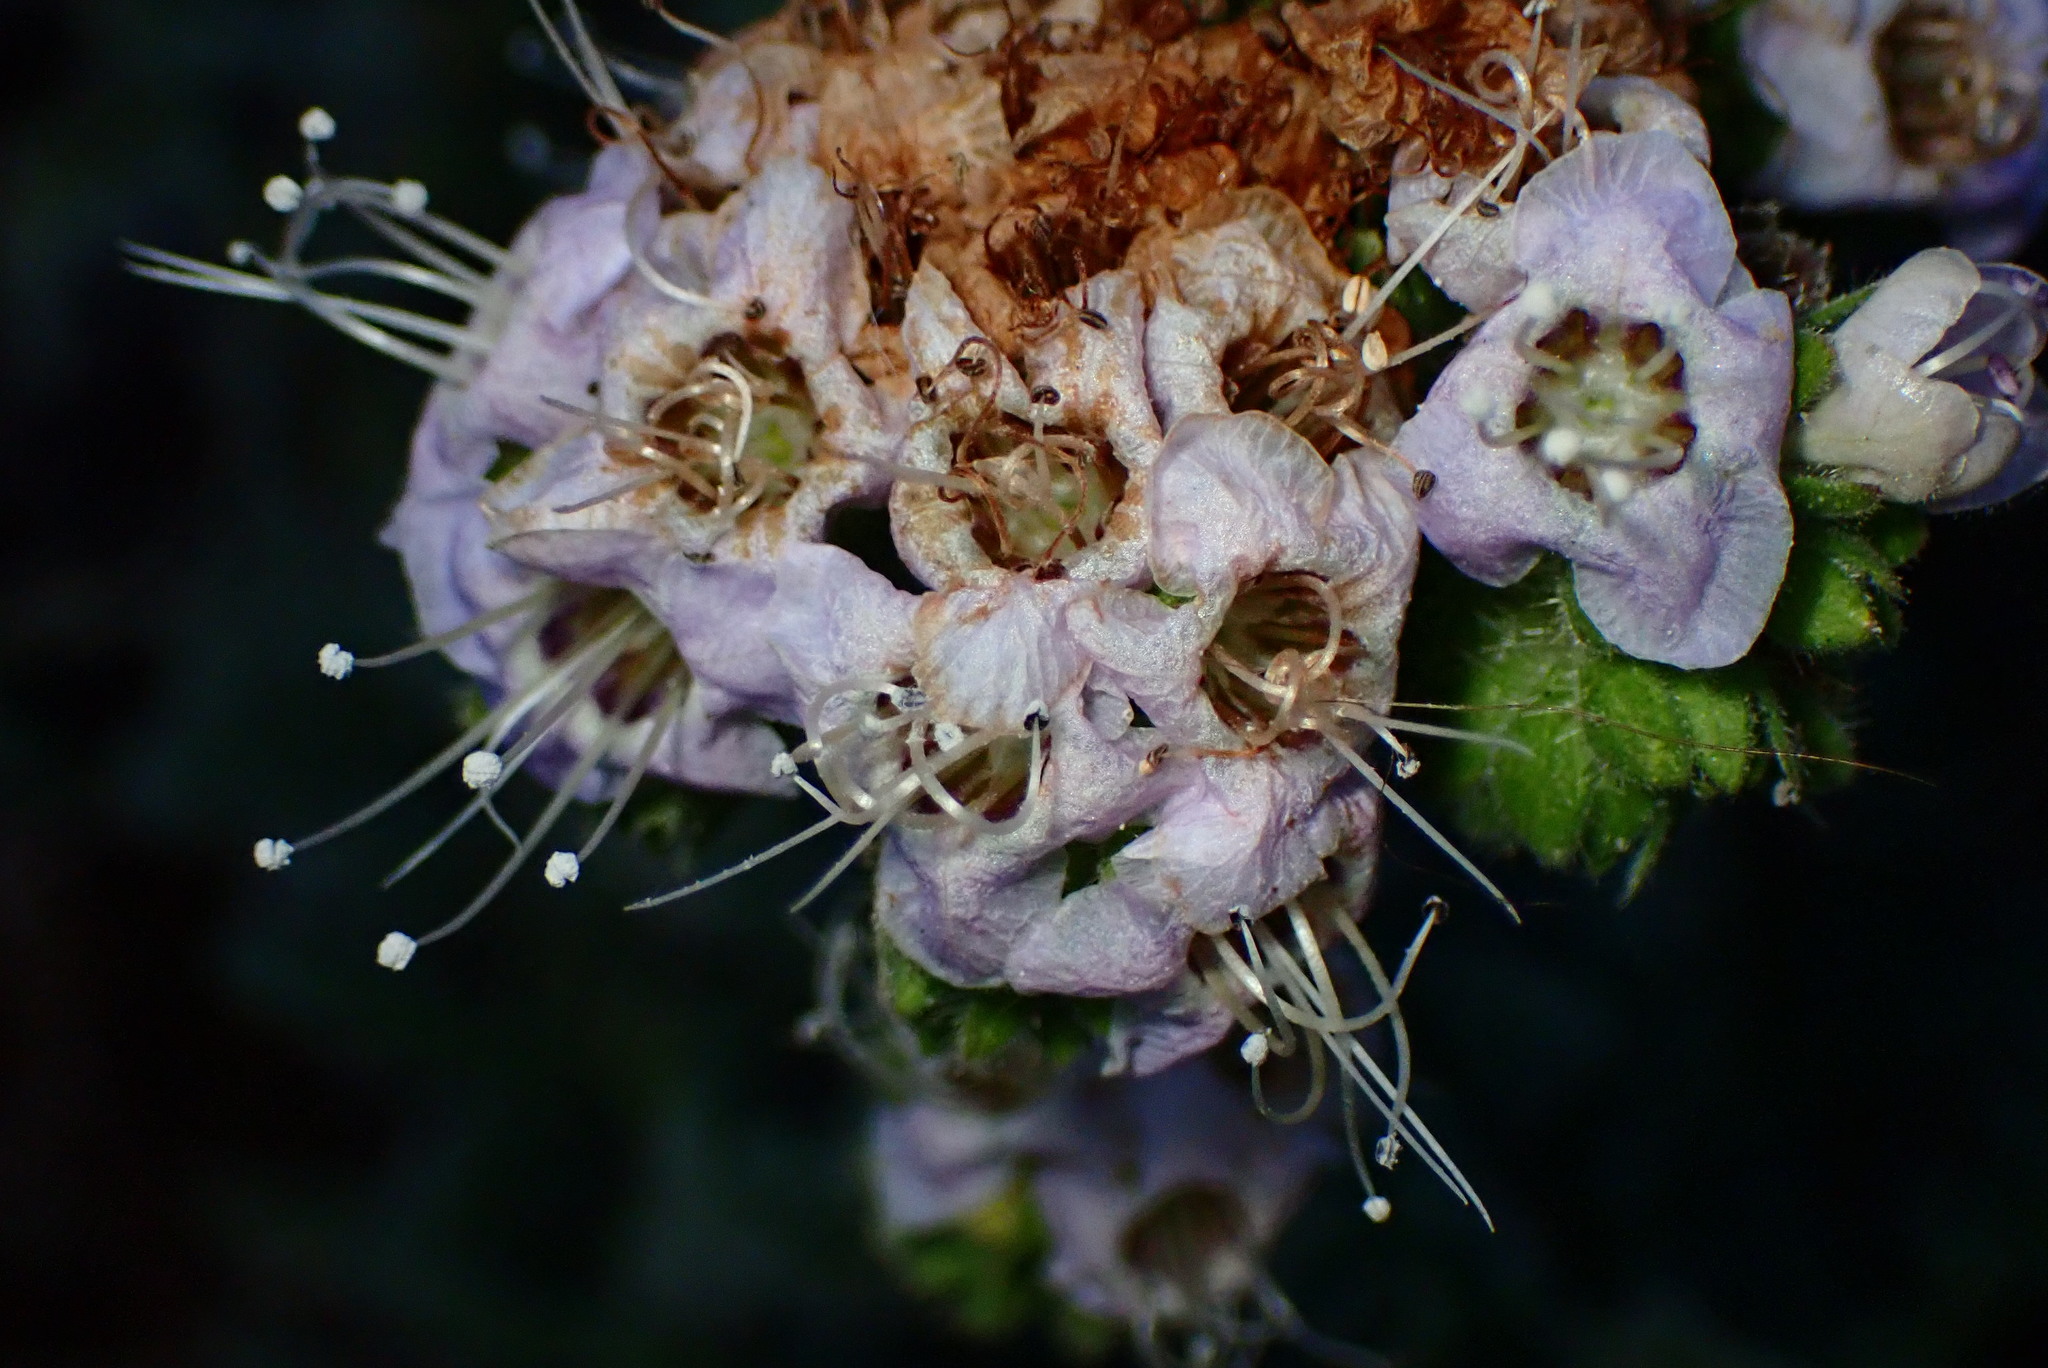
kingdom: Plantae
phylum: Tracheophyta
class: Magnoliopsida
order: Boraginales
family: Hydrophyllaceae
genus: Phacelia
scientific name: Phacelia ramosissima
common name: Branching phacelia
